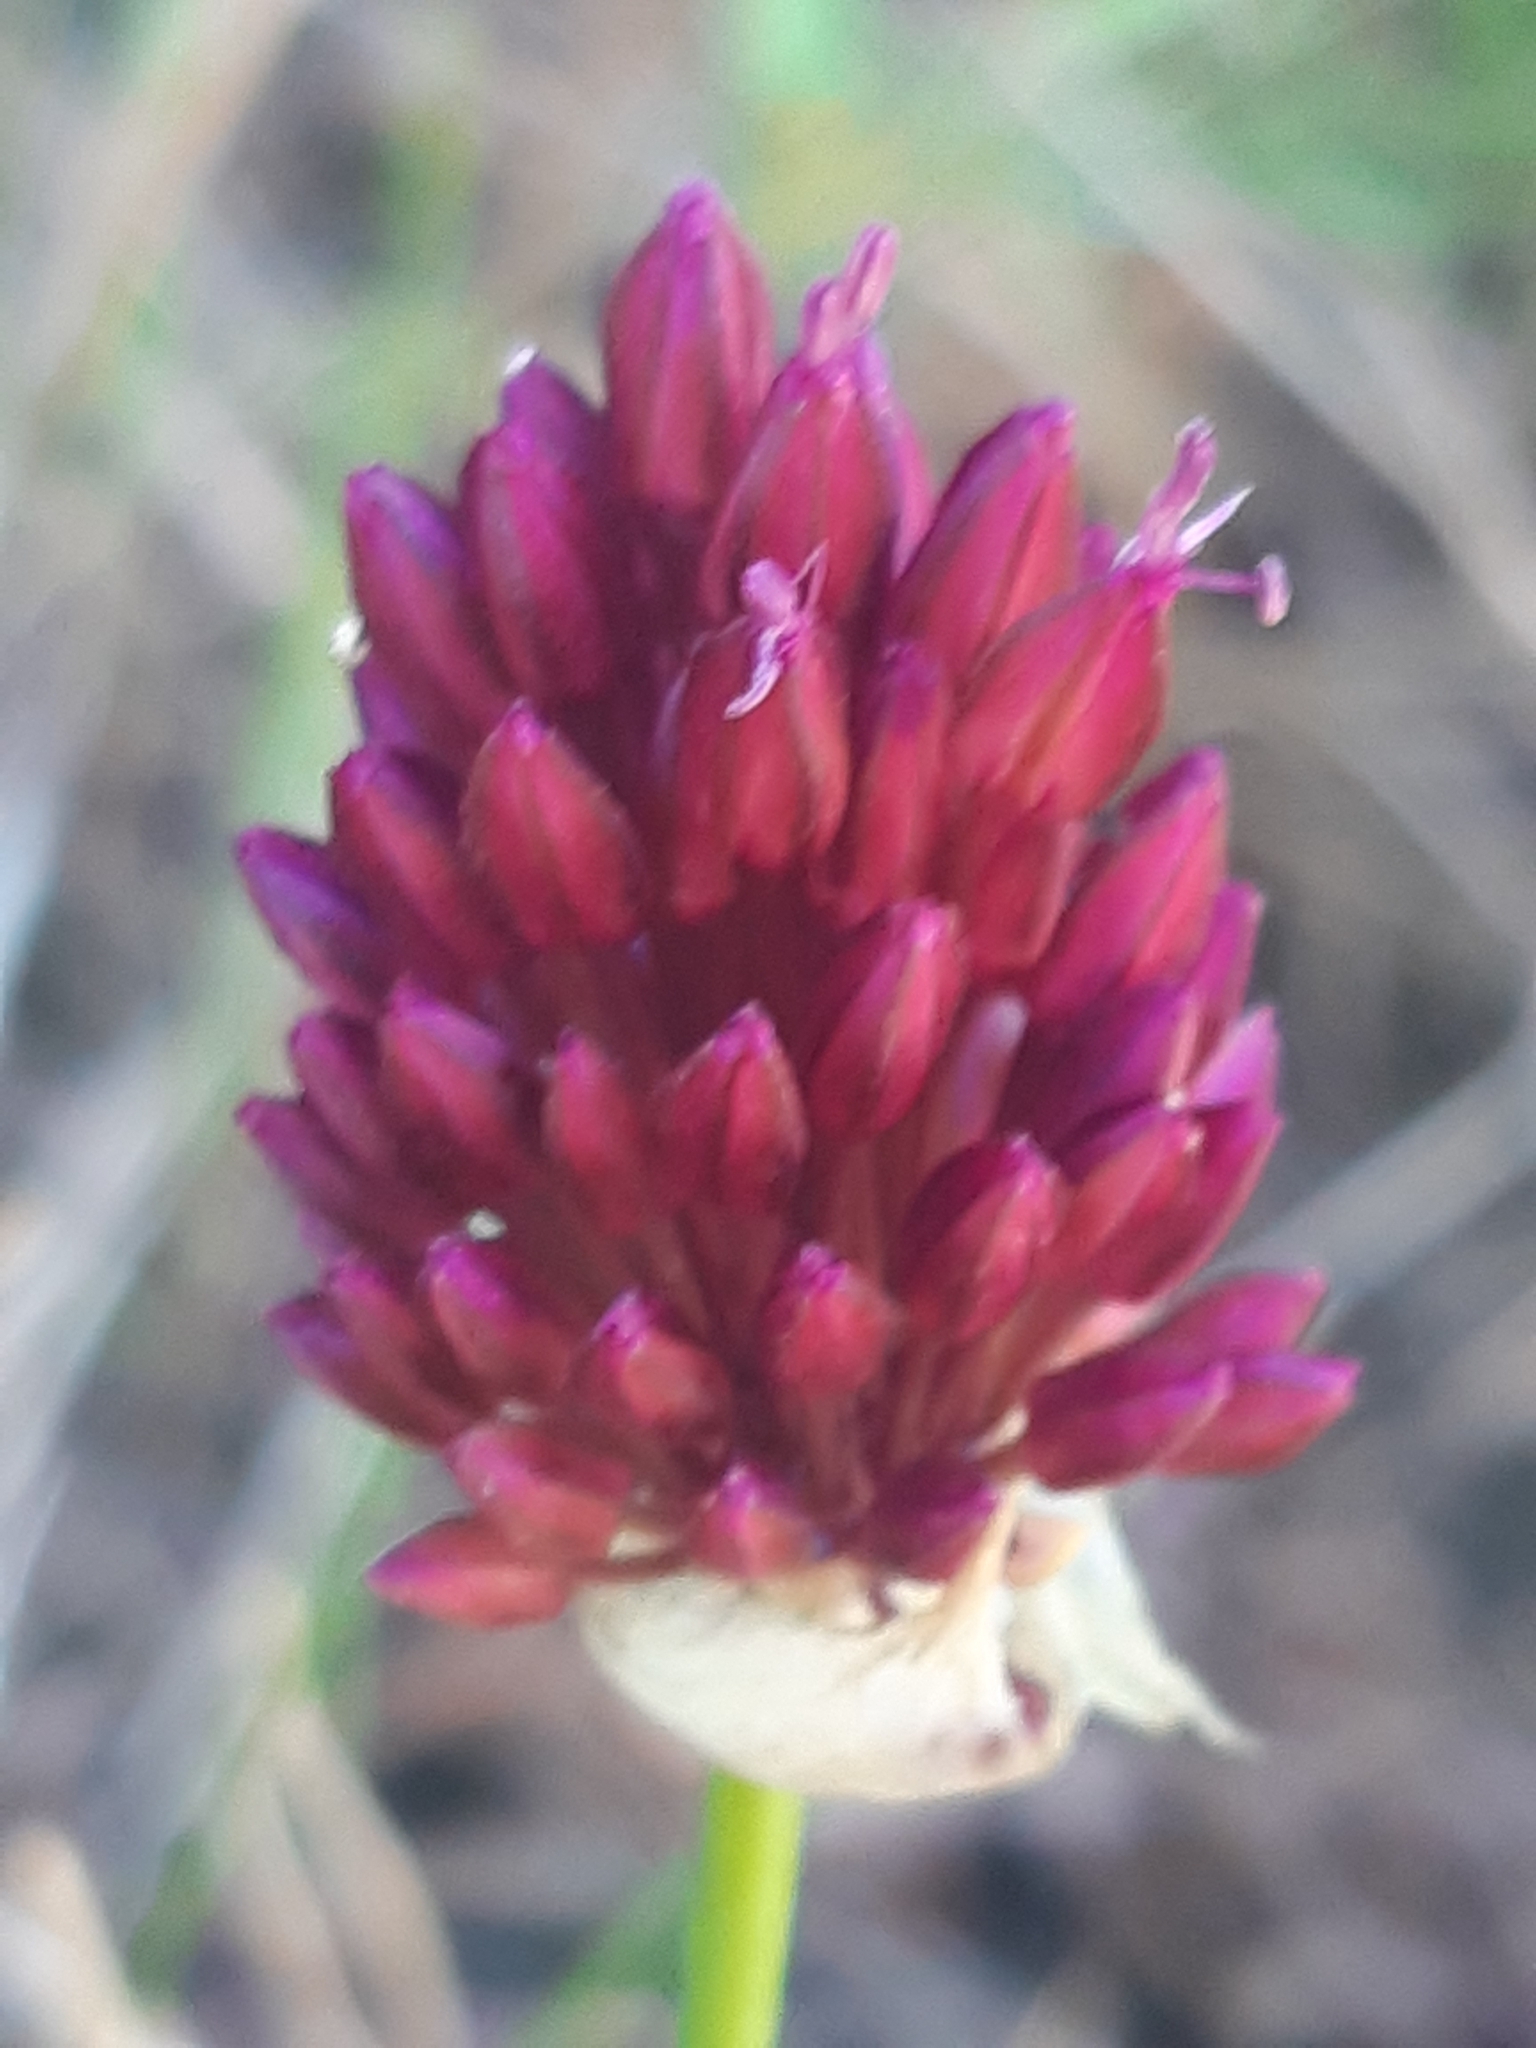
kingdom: Plantae
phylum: Tracheophyta
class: Liliopsida
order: Asparagales
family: Amaryllidaceae
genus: Allium
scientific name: Allium sphaerocephalon
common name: Round-headed leek
